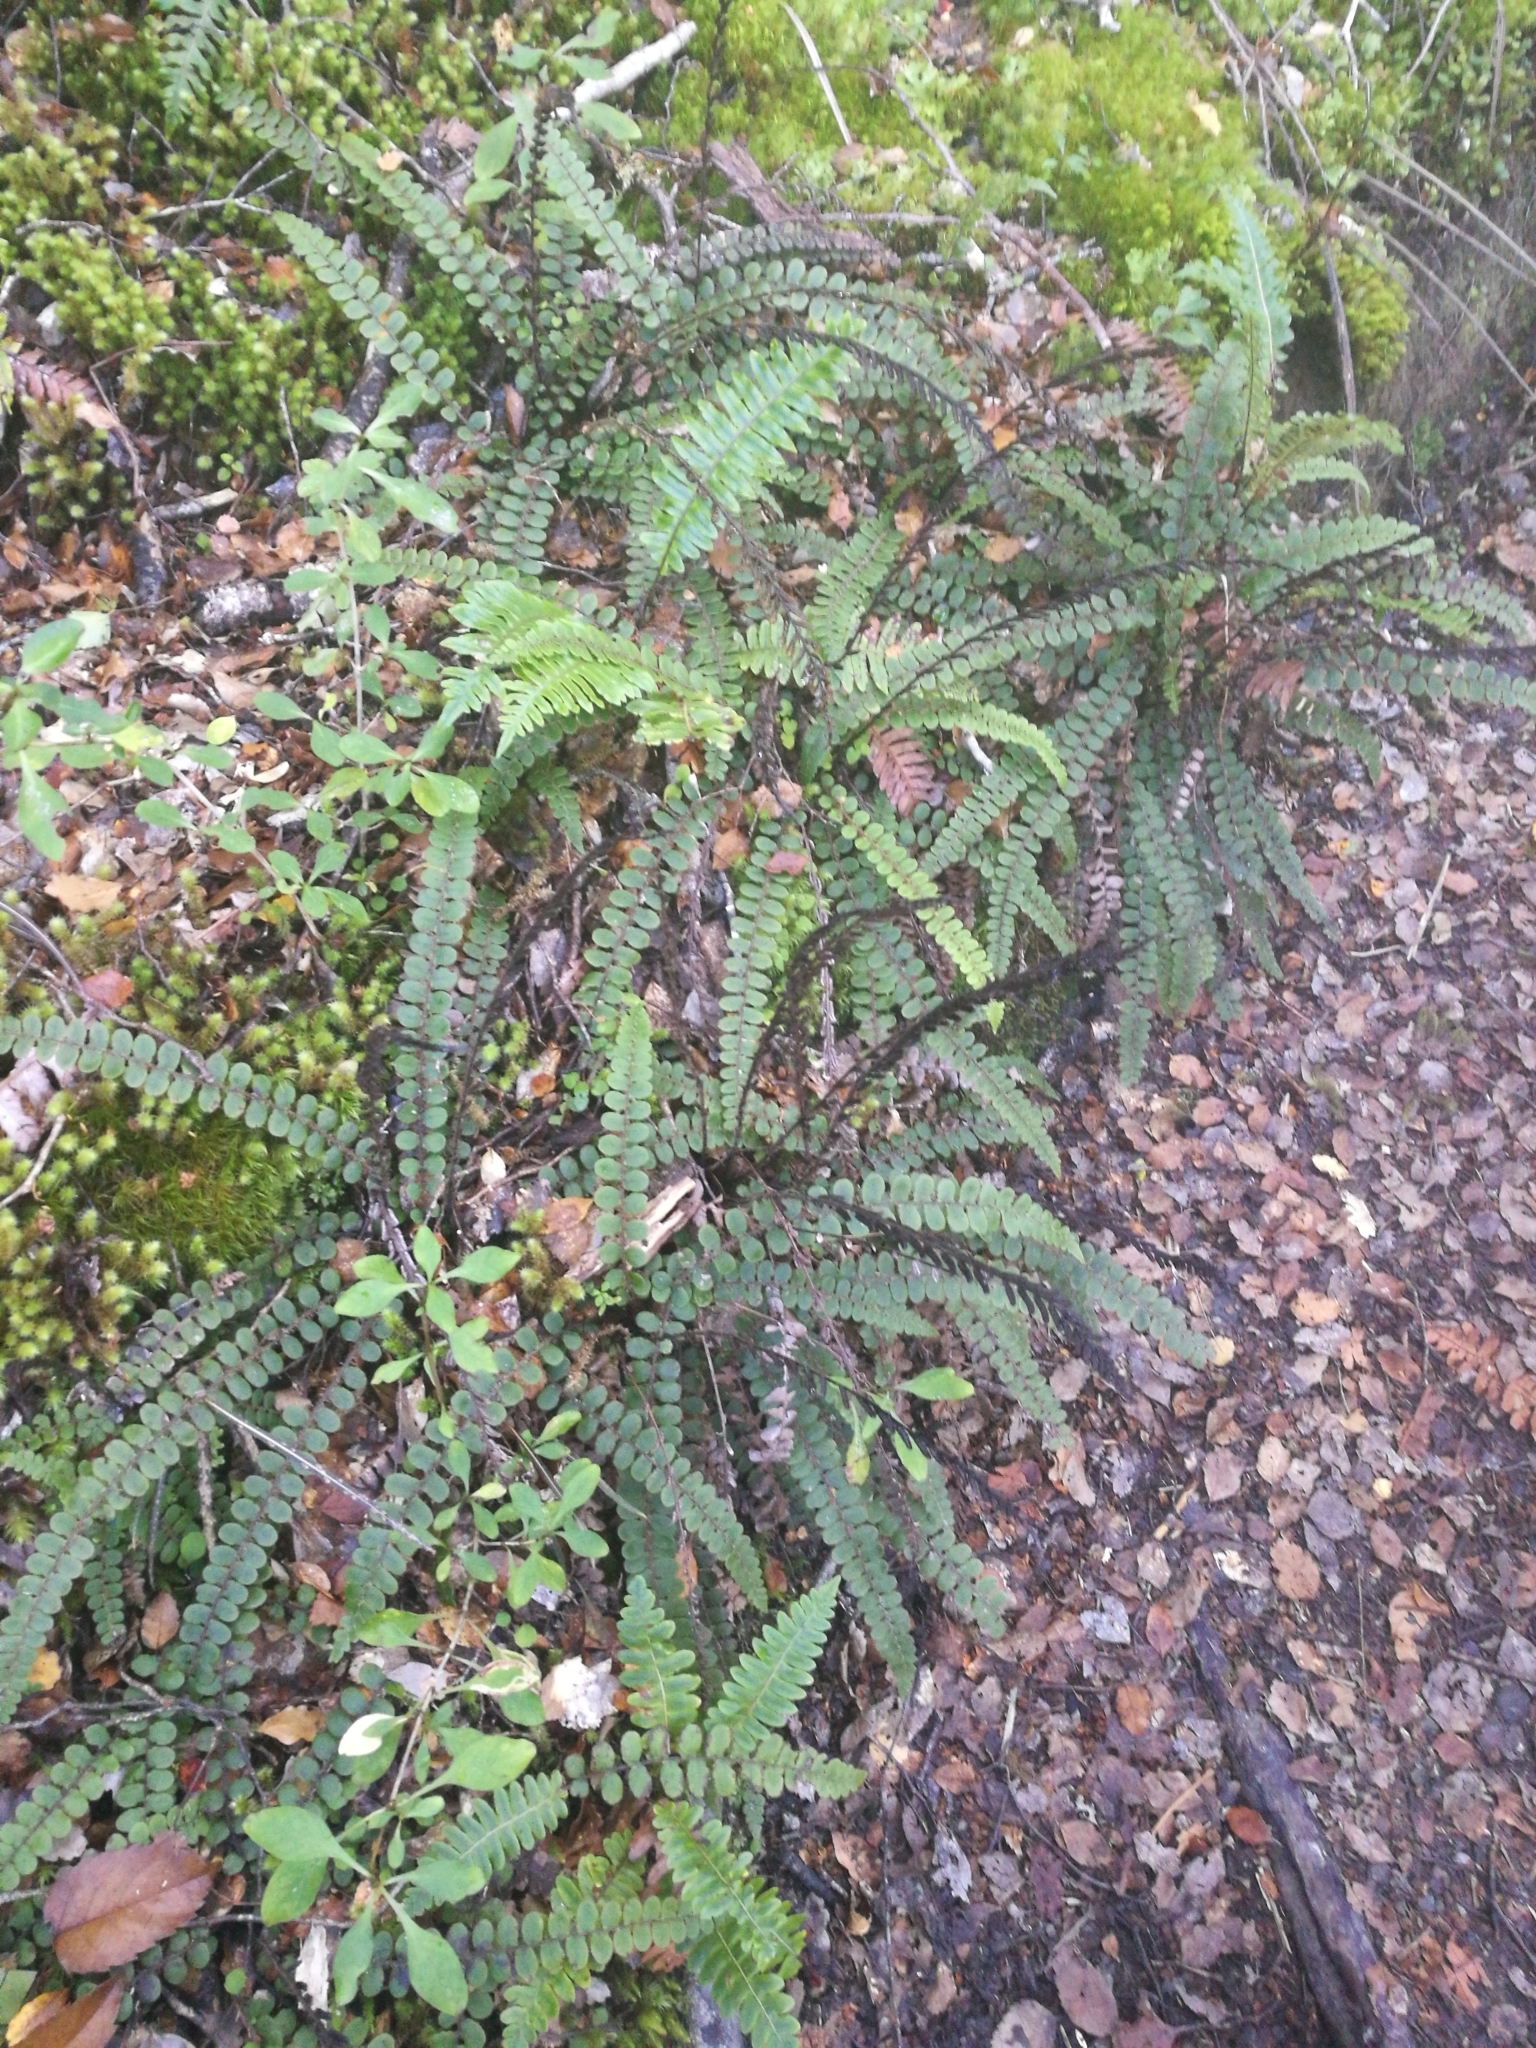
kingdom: Plantae
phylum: Tracheophyta
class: Polypodiopsida
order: Polypodiales
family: Blechnaceae
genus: Cranfillia
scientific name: Cranfillia fluviatilis
